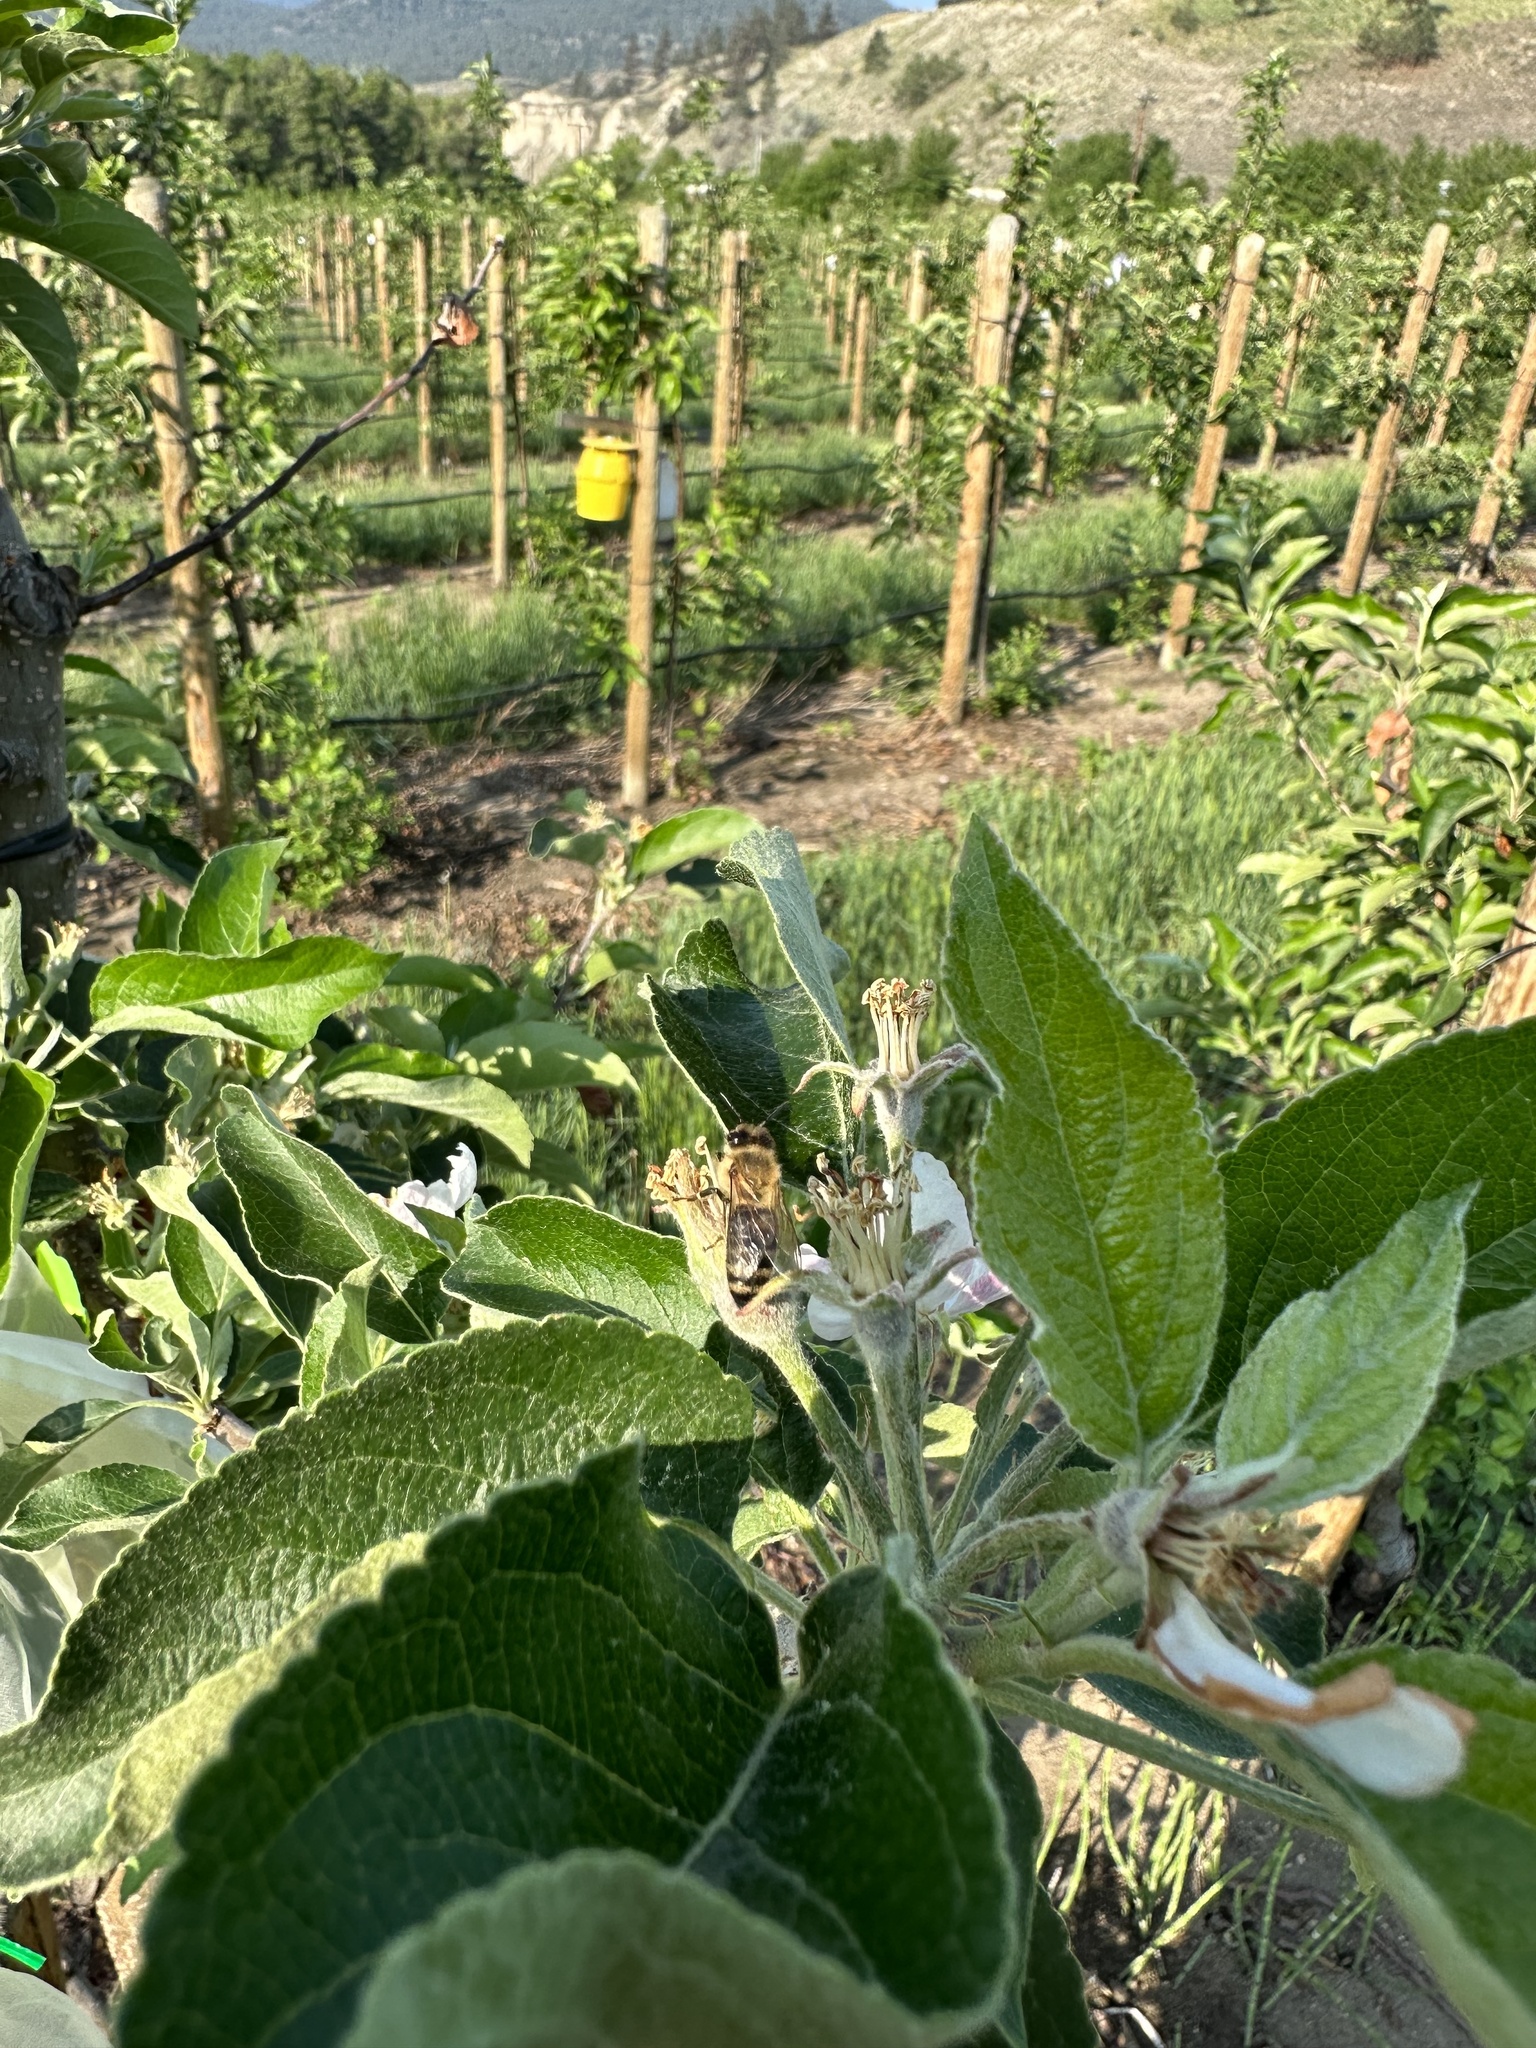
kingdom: Animalia
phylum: Arthropoda
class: Insecta
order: Hymenoptera
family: Apidae
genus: Apis
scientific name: Apis mellifera
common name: Honey bee
